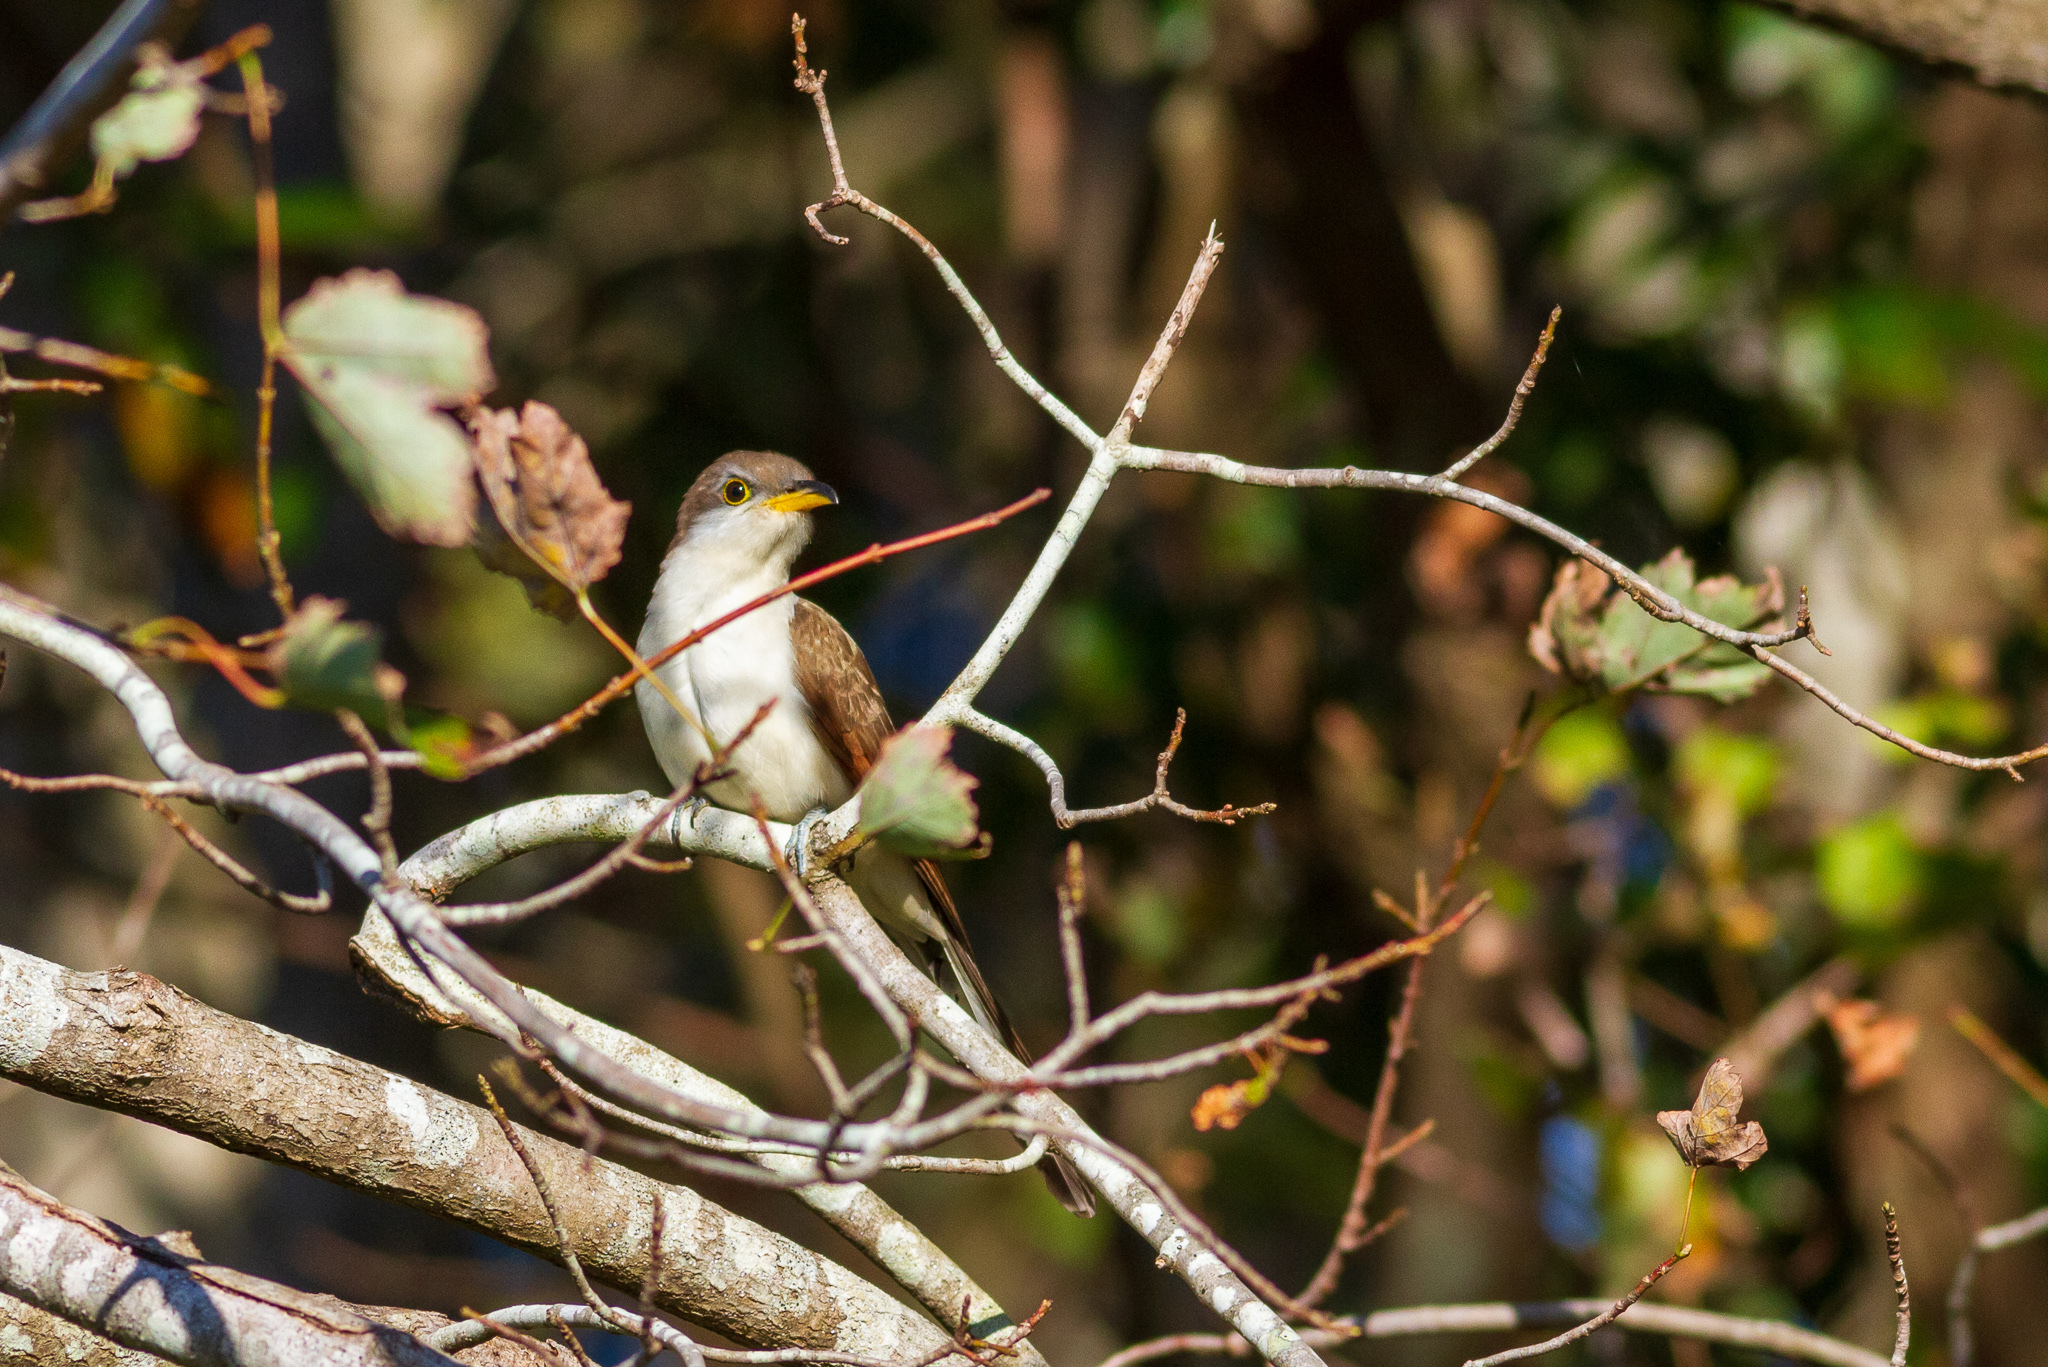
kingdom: Animalia
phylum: Chordata
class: Aves
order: Cuculiformes
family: Cuculidae
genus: Coccyzus
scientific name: Coccyzus americanus
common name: Yellow-billed cuckoo
